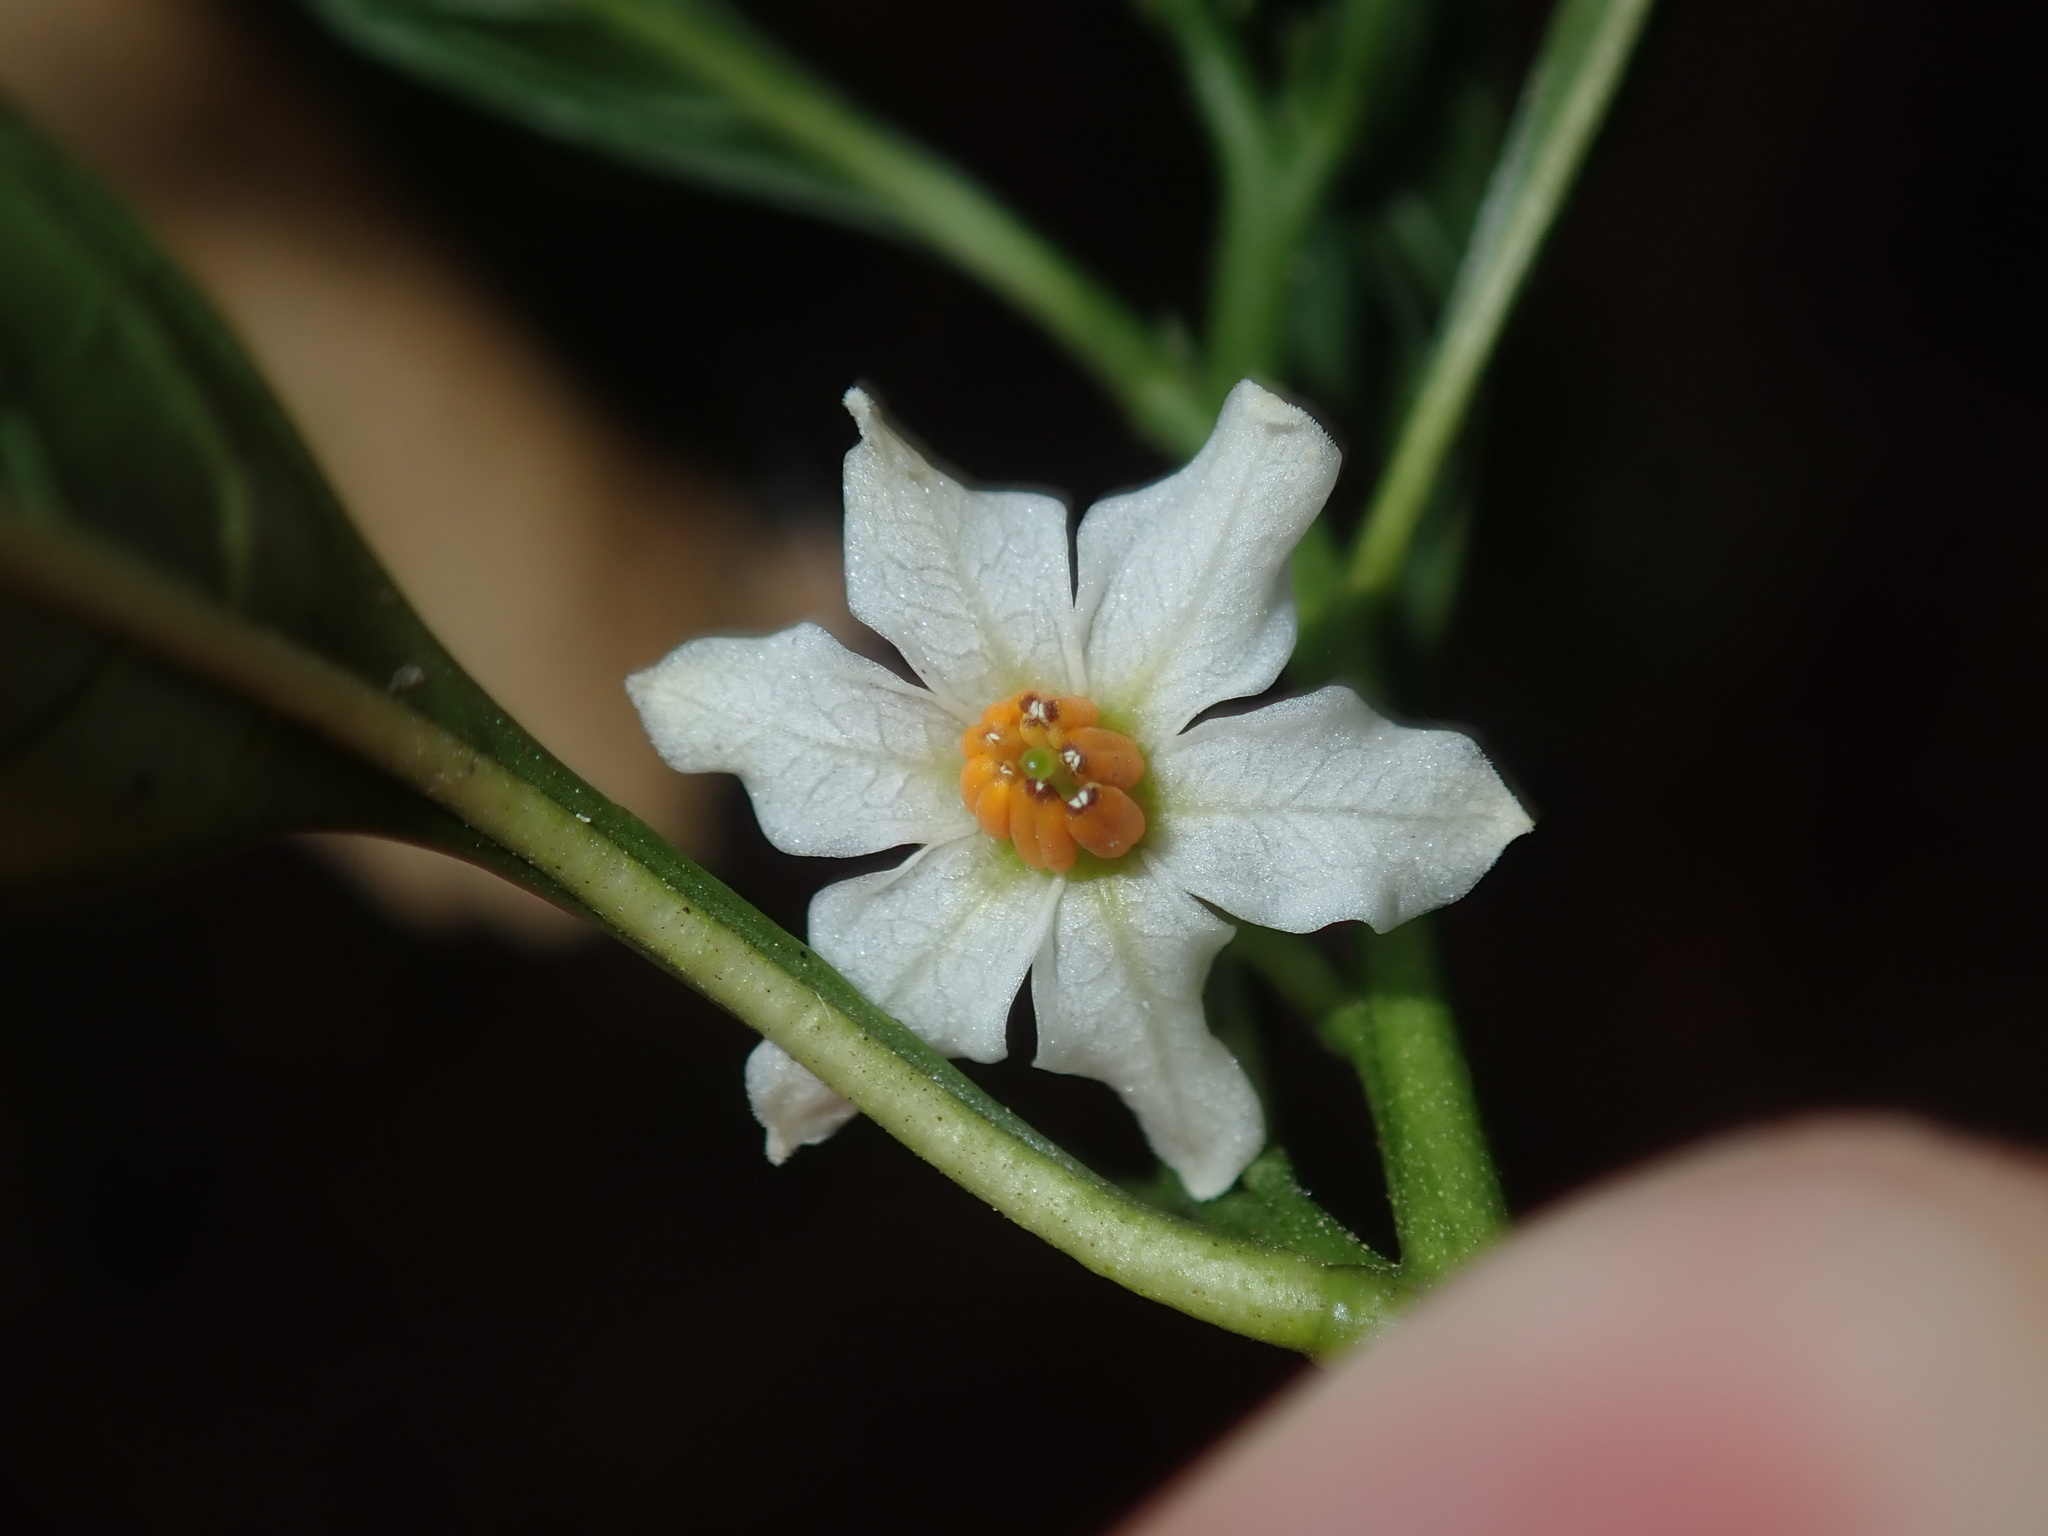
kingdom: Plantae
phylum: Tracheophyta
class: Magnoliopsida
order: Solanales
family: Solanaceae
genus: Solanum
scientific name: Solanum pseudocapsicum
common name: Jerusalem cherry
